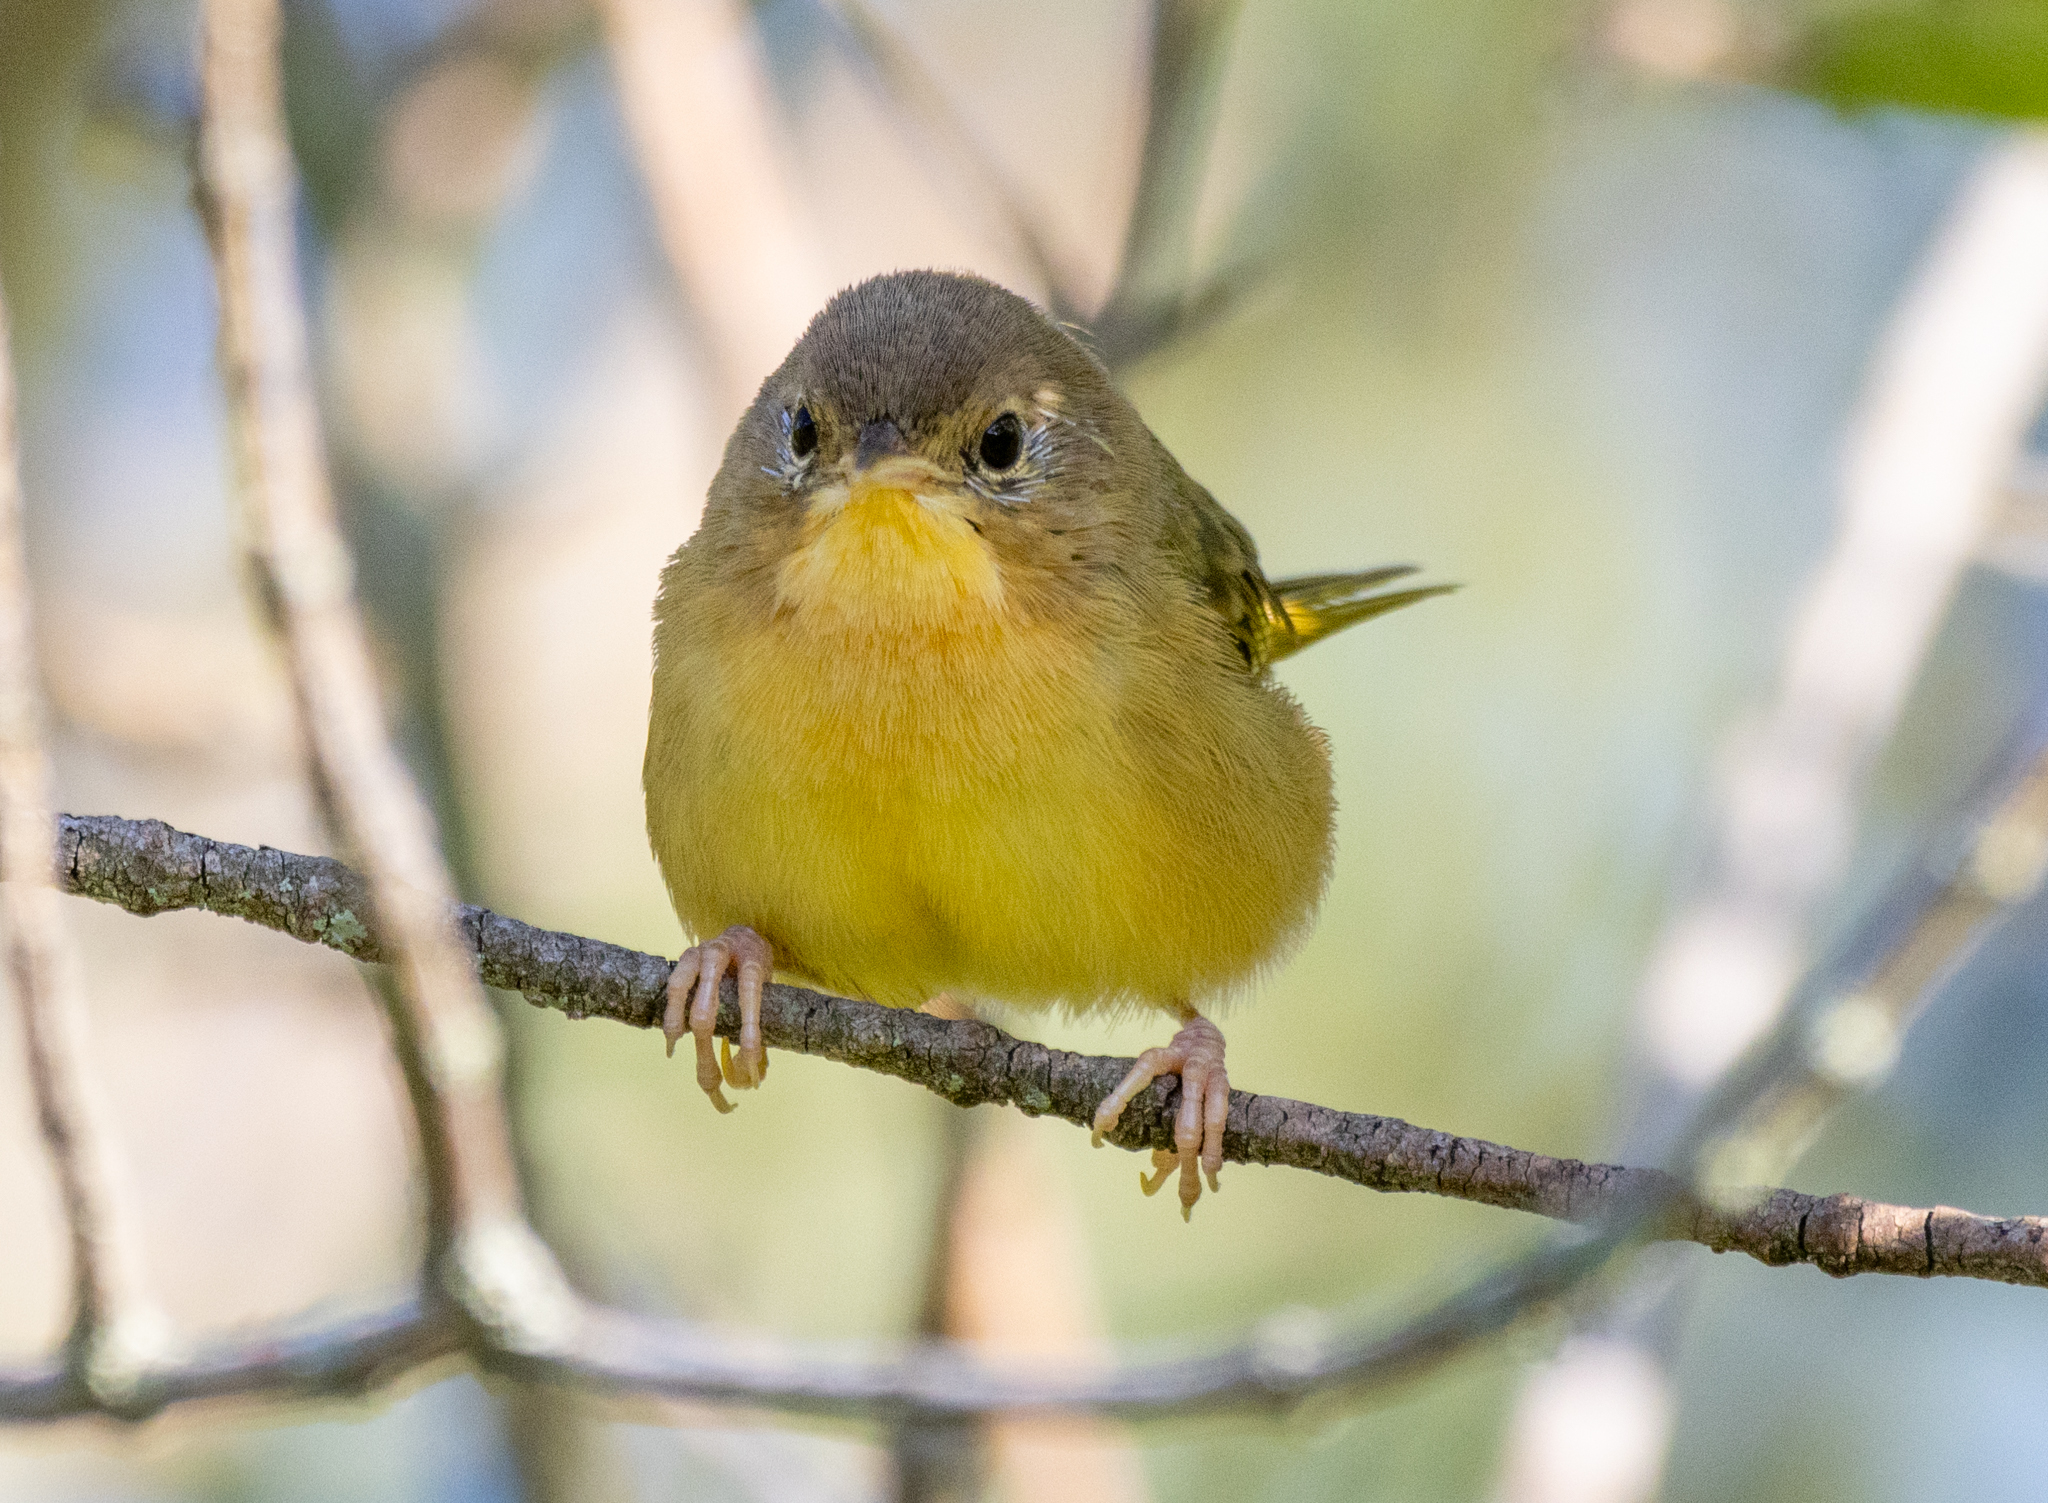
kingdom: Animalia
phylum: Chordata
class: Aves
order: Passeriformes
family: Parulidae
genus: Geothlypis
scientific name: Geothlypis trichas
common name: Common yellowthroat
